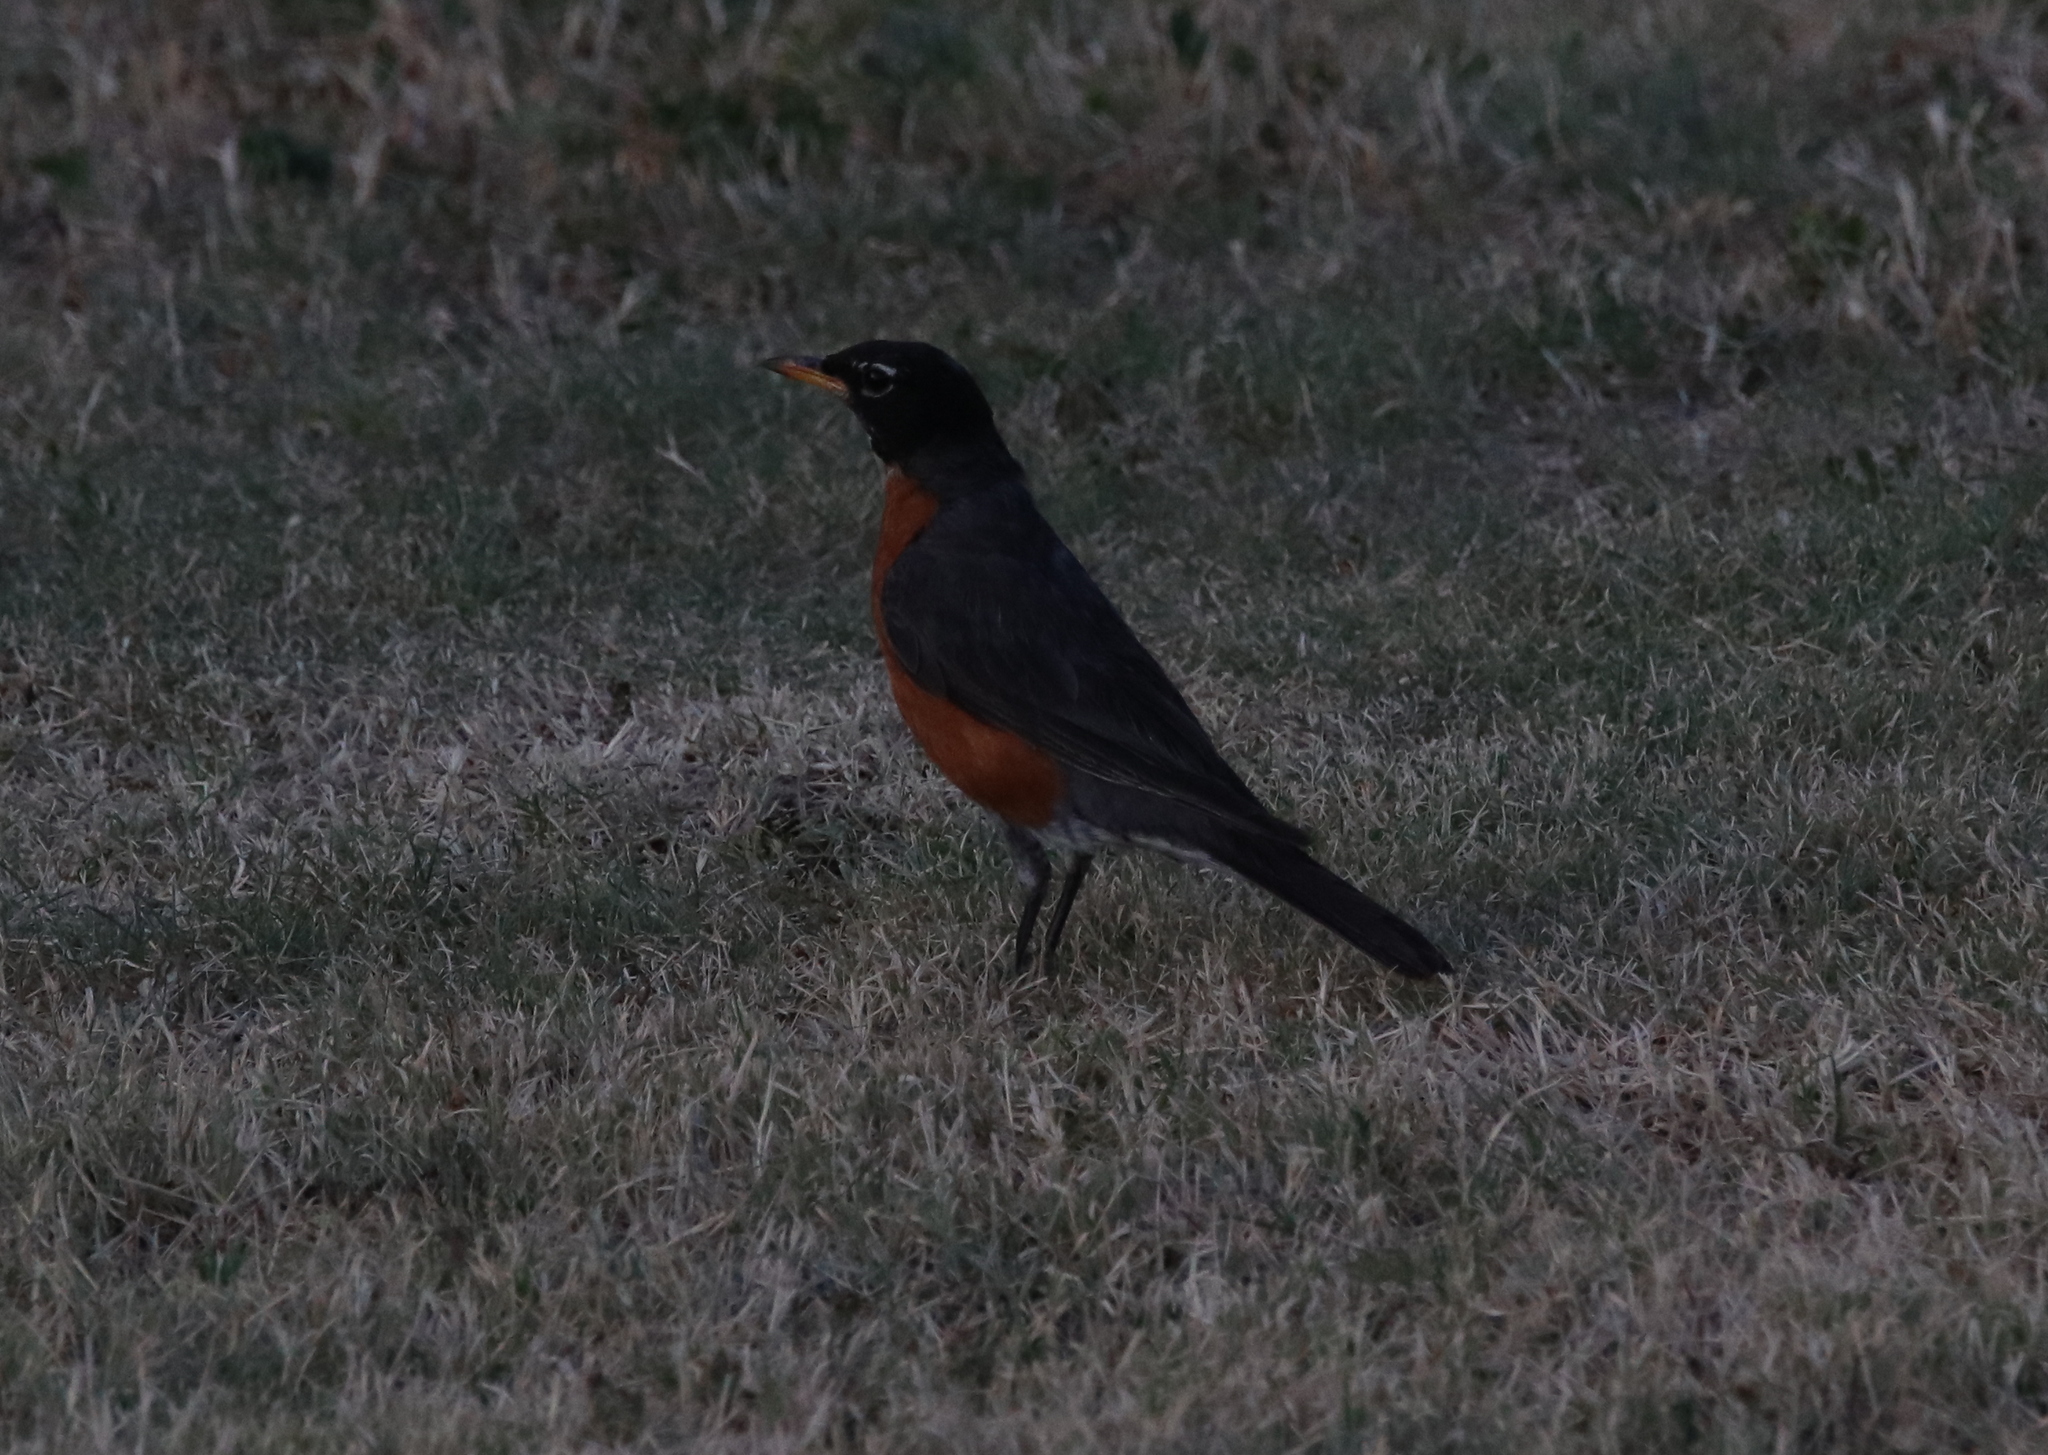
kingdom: Animalia
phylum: Chordata
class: Aves
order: Passeriformes
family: Turdidae
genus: Turdus
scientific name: Turdus migratorius
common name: American robin
